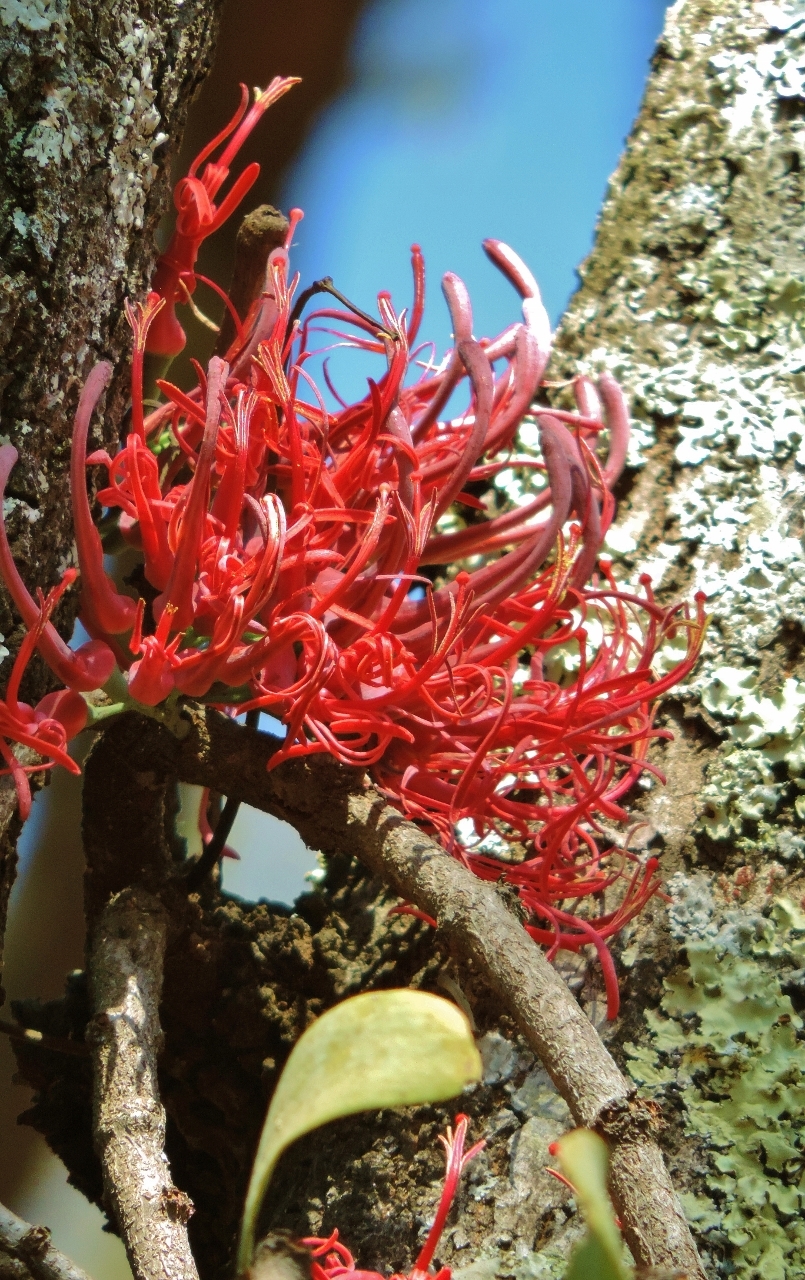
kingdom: Plantae
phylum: Tracheophyta
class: Magnoliopsida
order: Santalales
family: Loranthaceae
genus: Plicosepalus
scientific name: Plicosepalus kalachariensis
